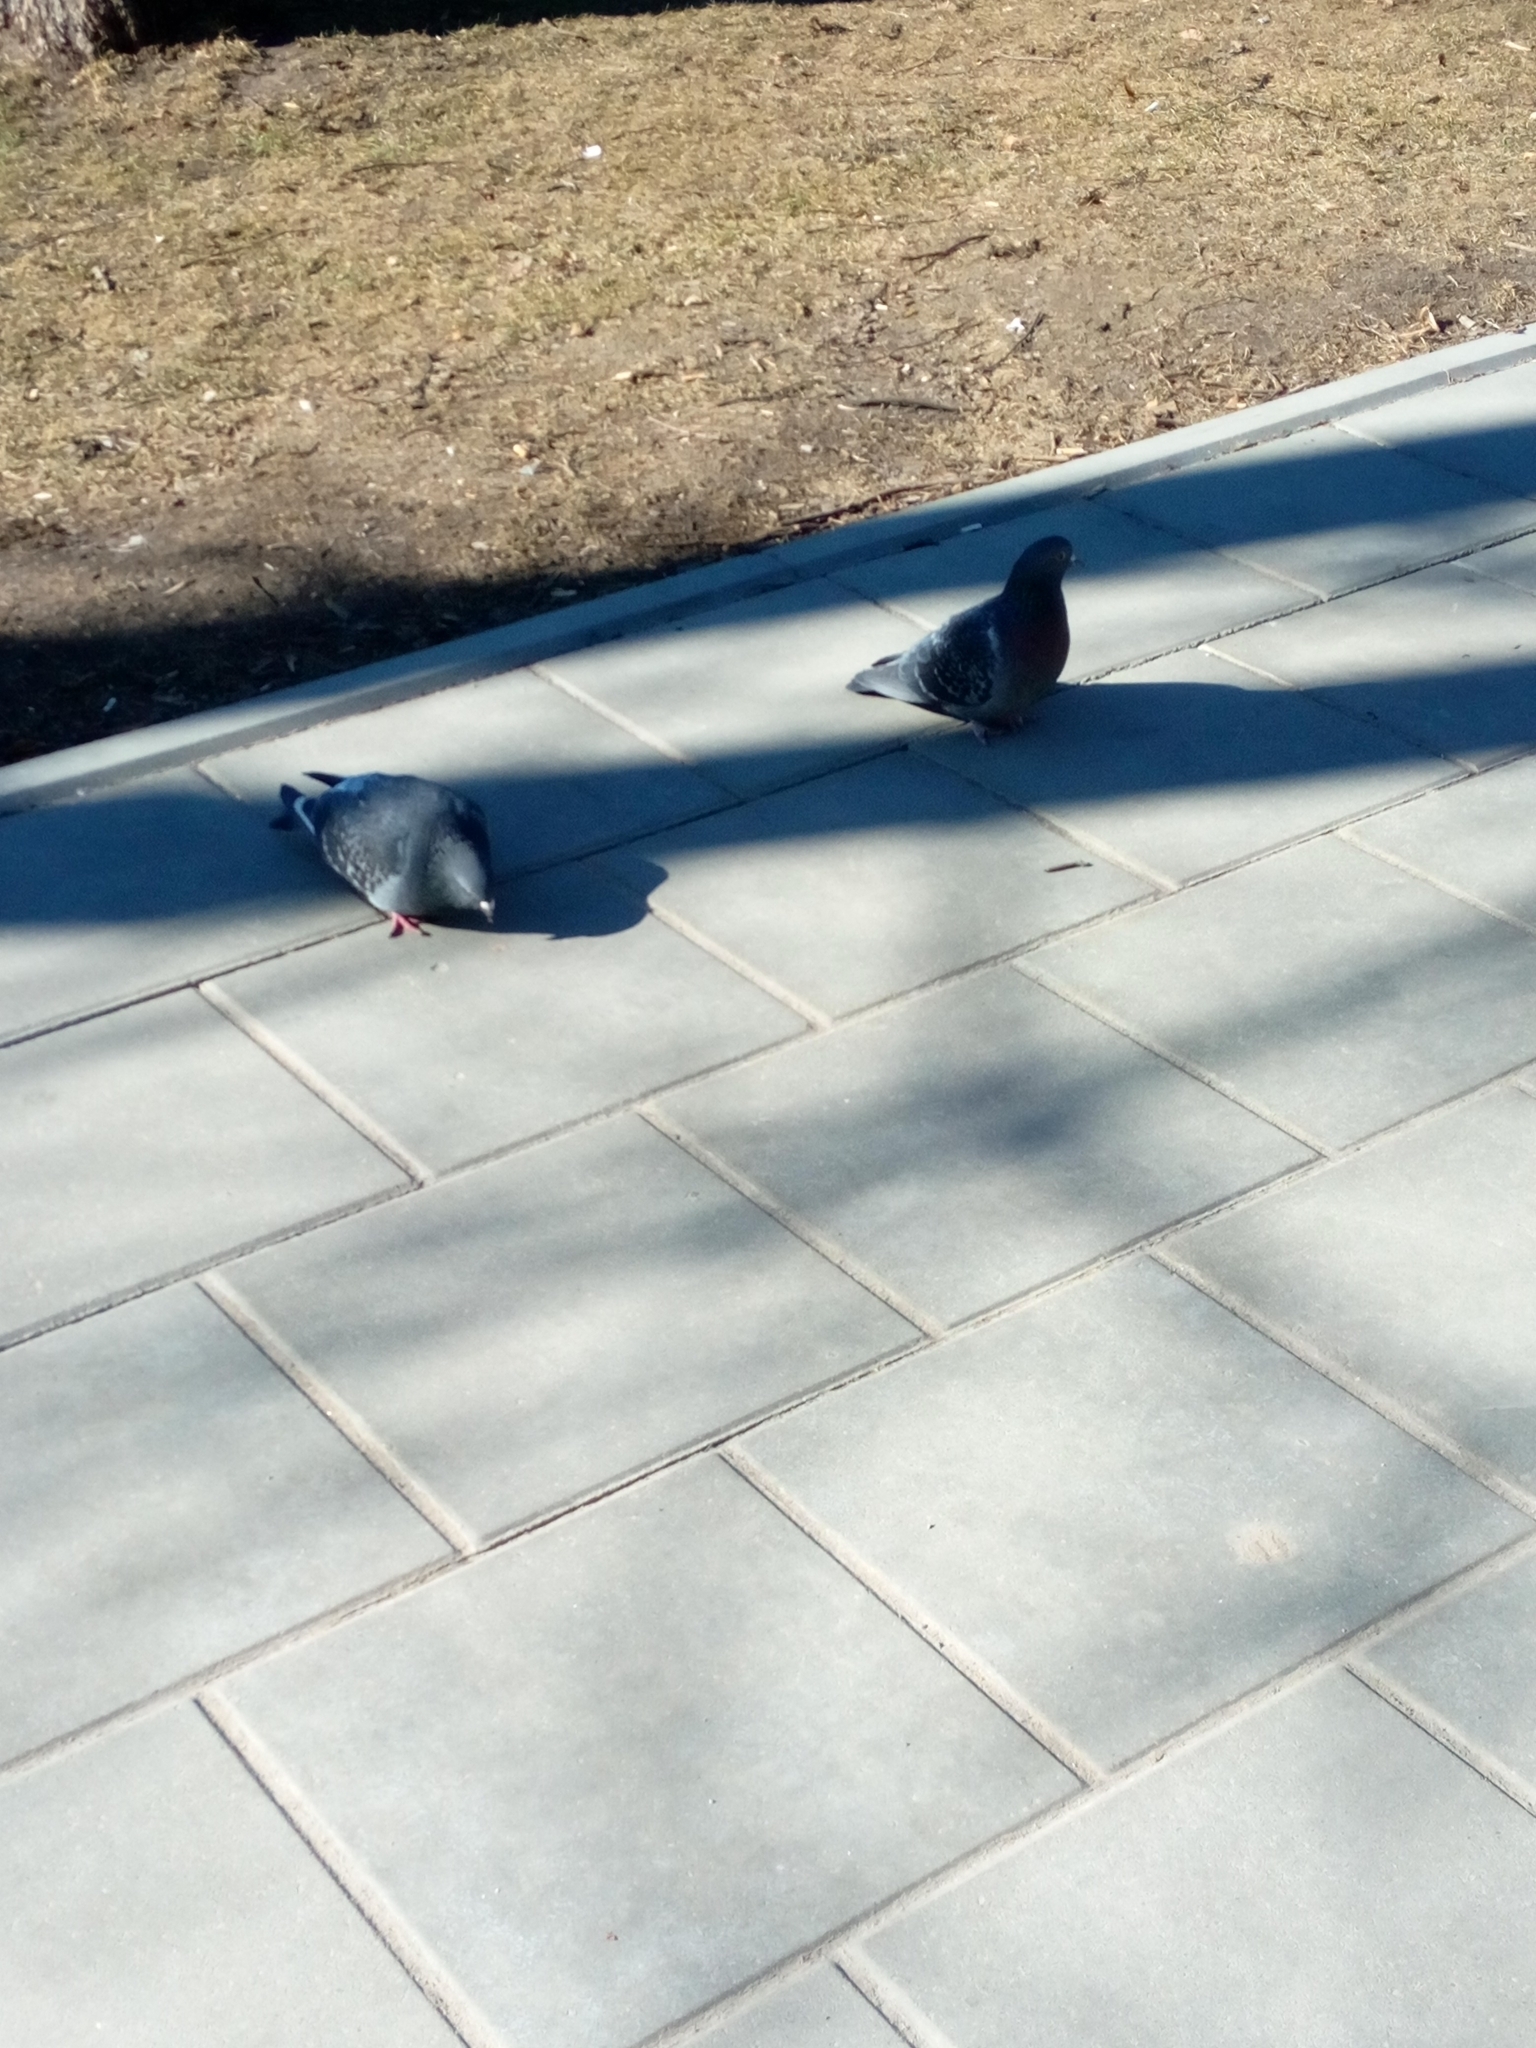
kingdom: Animalia
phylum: Chordata
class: Aves
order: Columbiformes
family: Columbidae
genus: Columba
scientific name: Columba livia
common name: Rock pigeon
